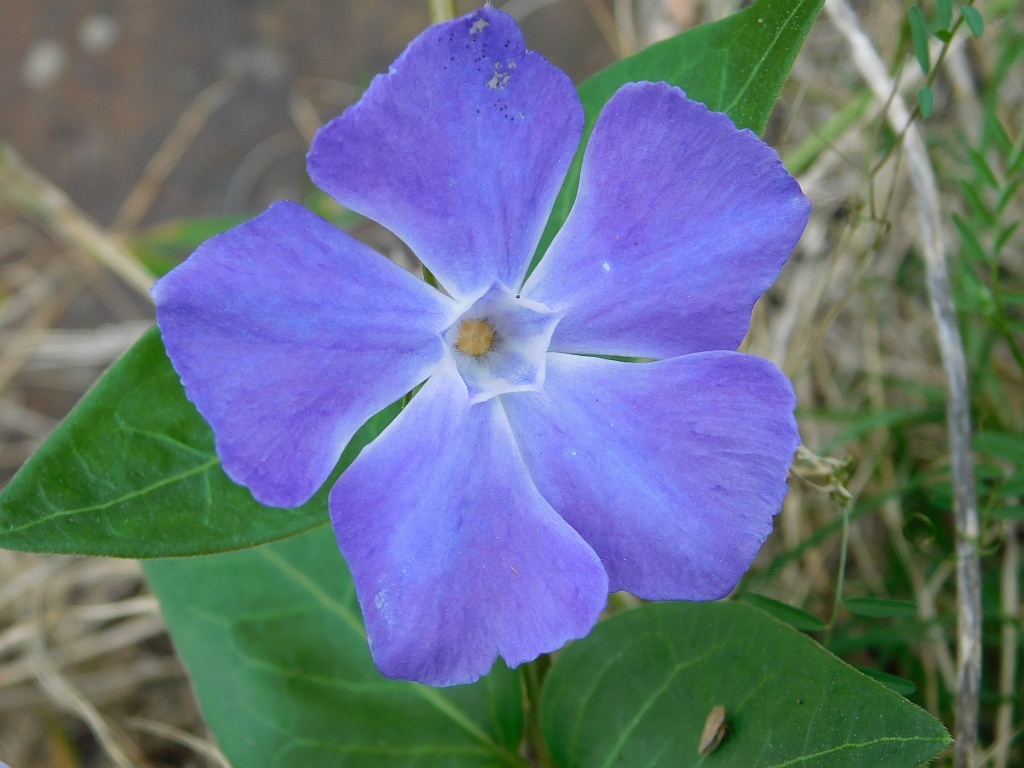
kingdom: Plantae
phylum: Tracheophyta
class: Magnoliopsida
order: Gentianales
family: Apocynaceae
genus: Vinca
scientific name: Vinca major
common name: Greater periwinkle
